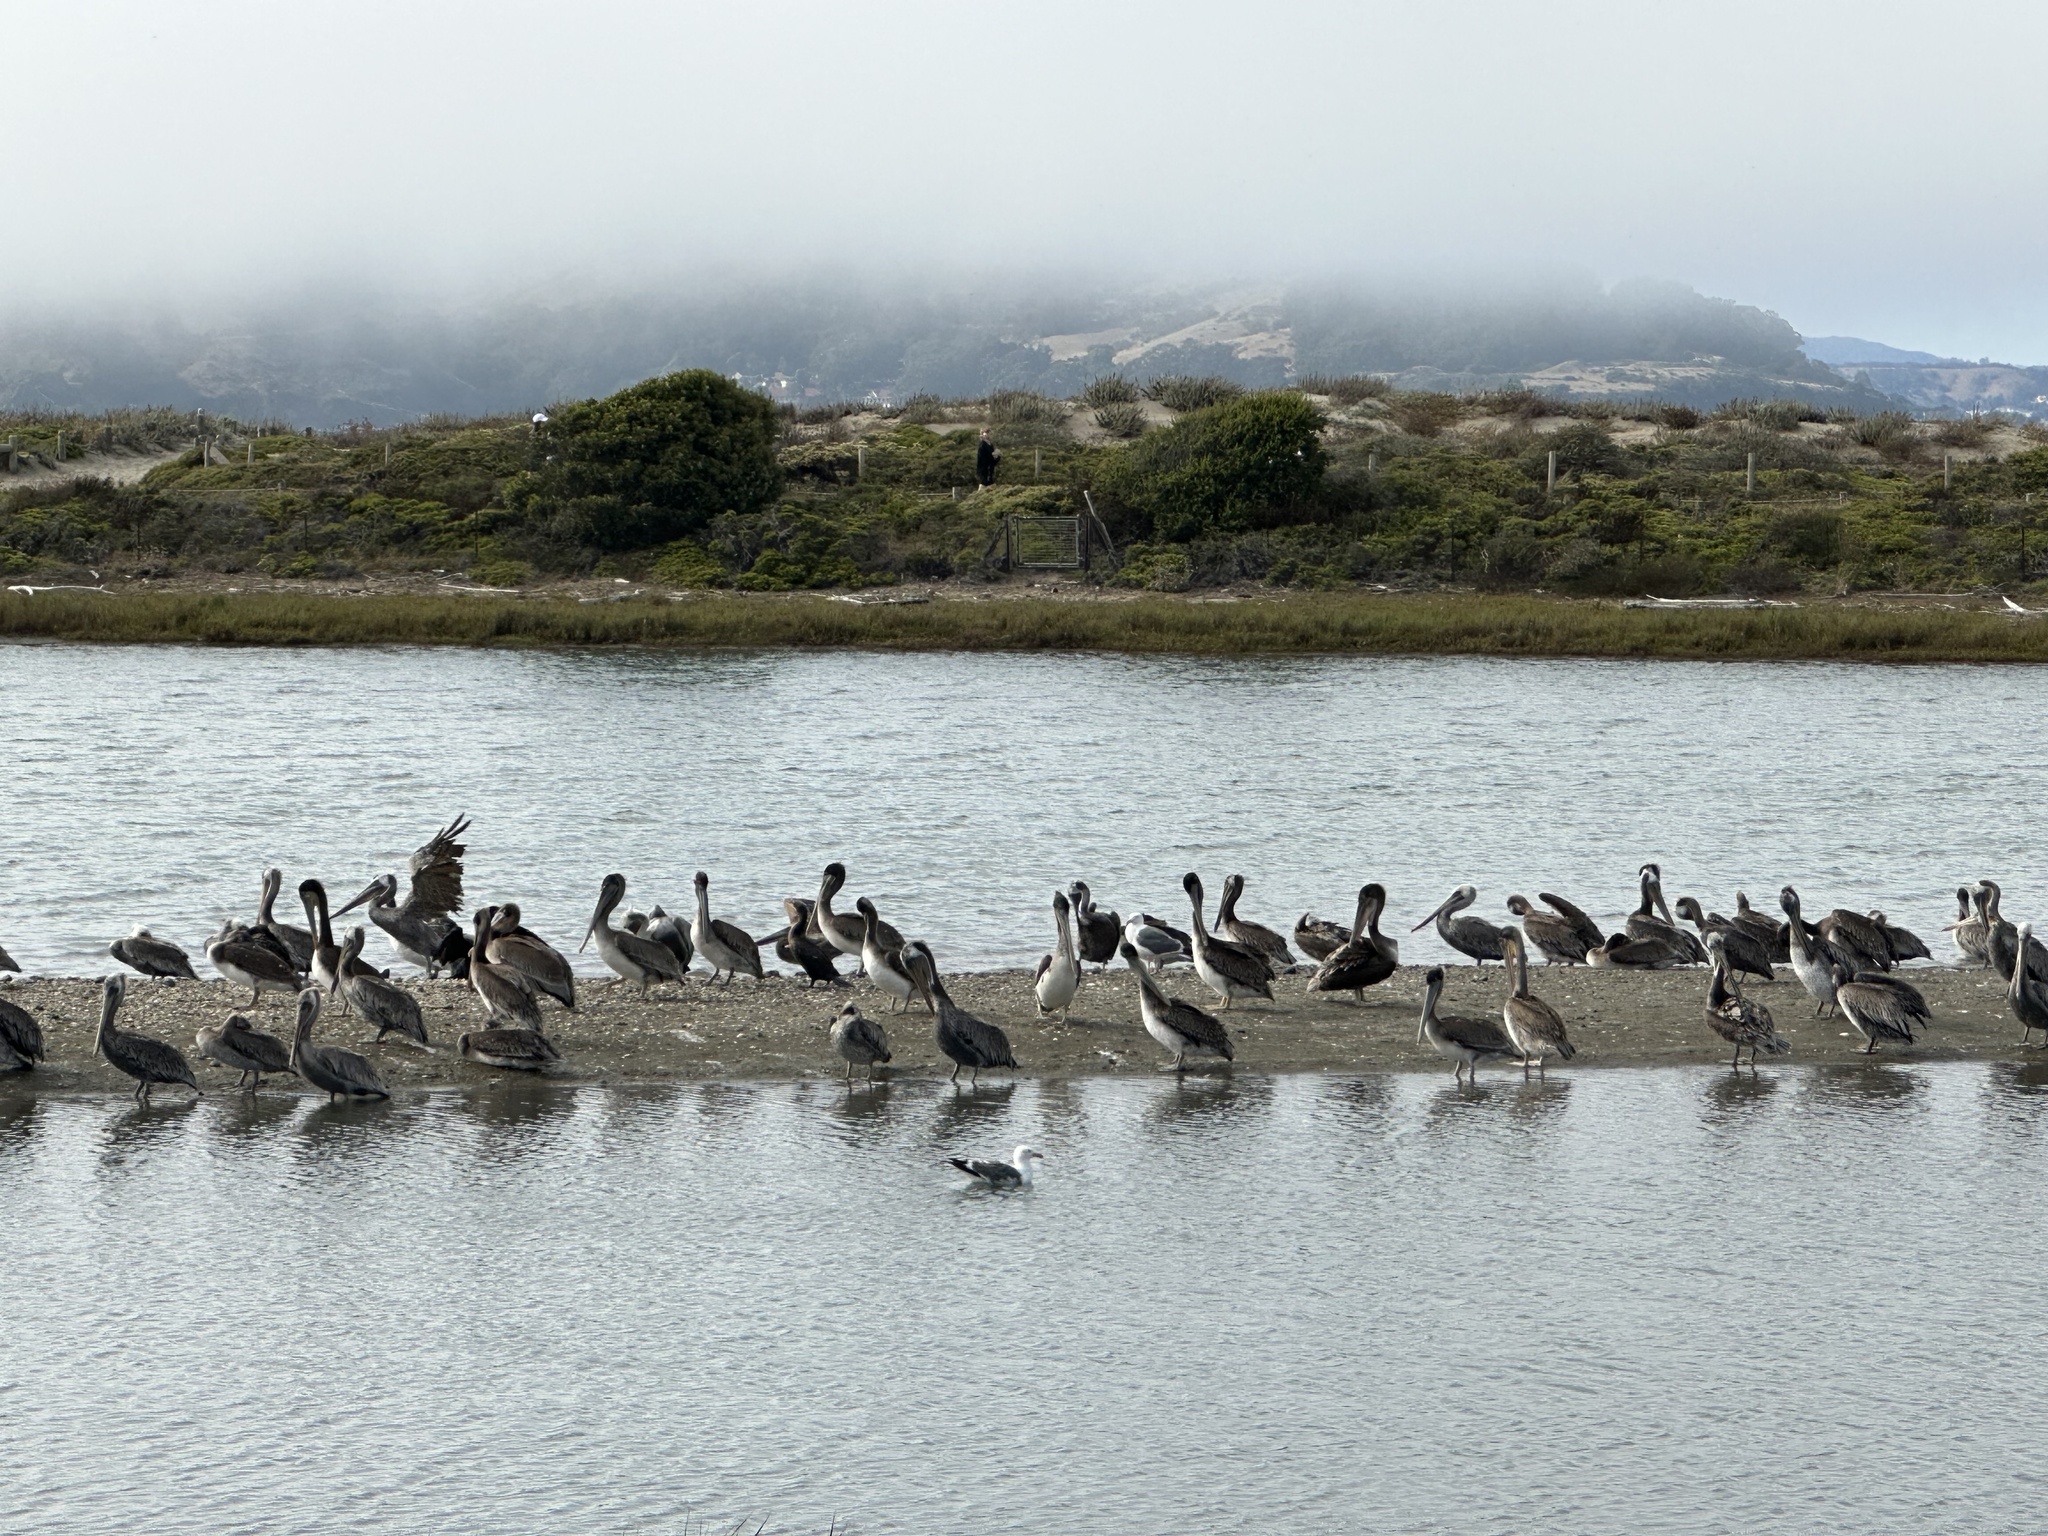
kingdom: Animalia
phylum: Chordata
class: Aves
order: Pelecaniformes
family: Pelecanidae
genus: Pelecanus
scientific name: Pelecanus occidentalis
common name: Brown pelican
